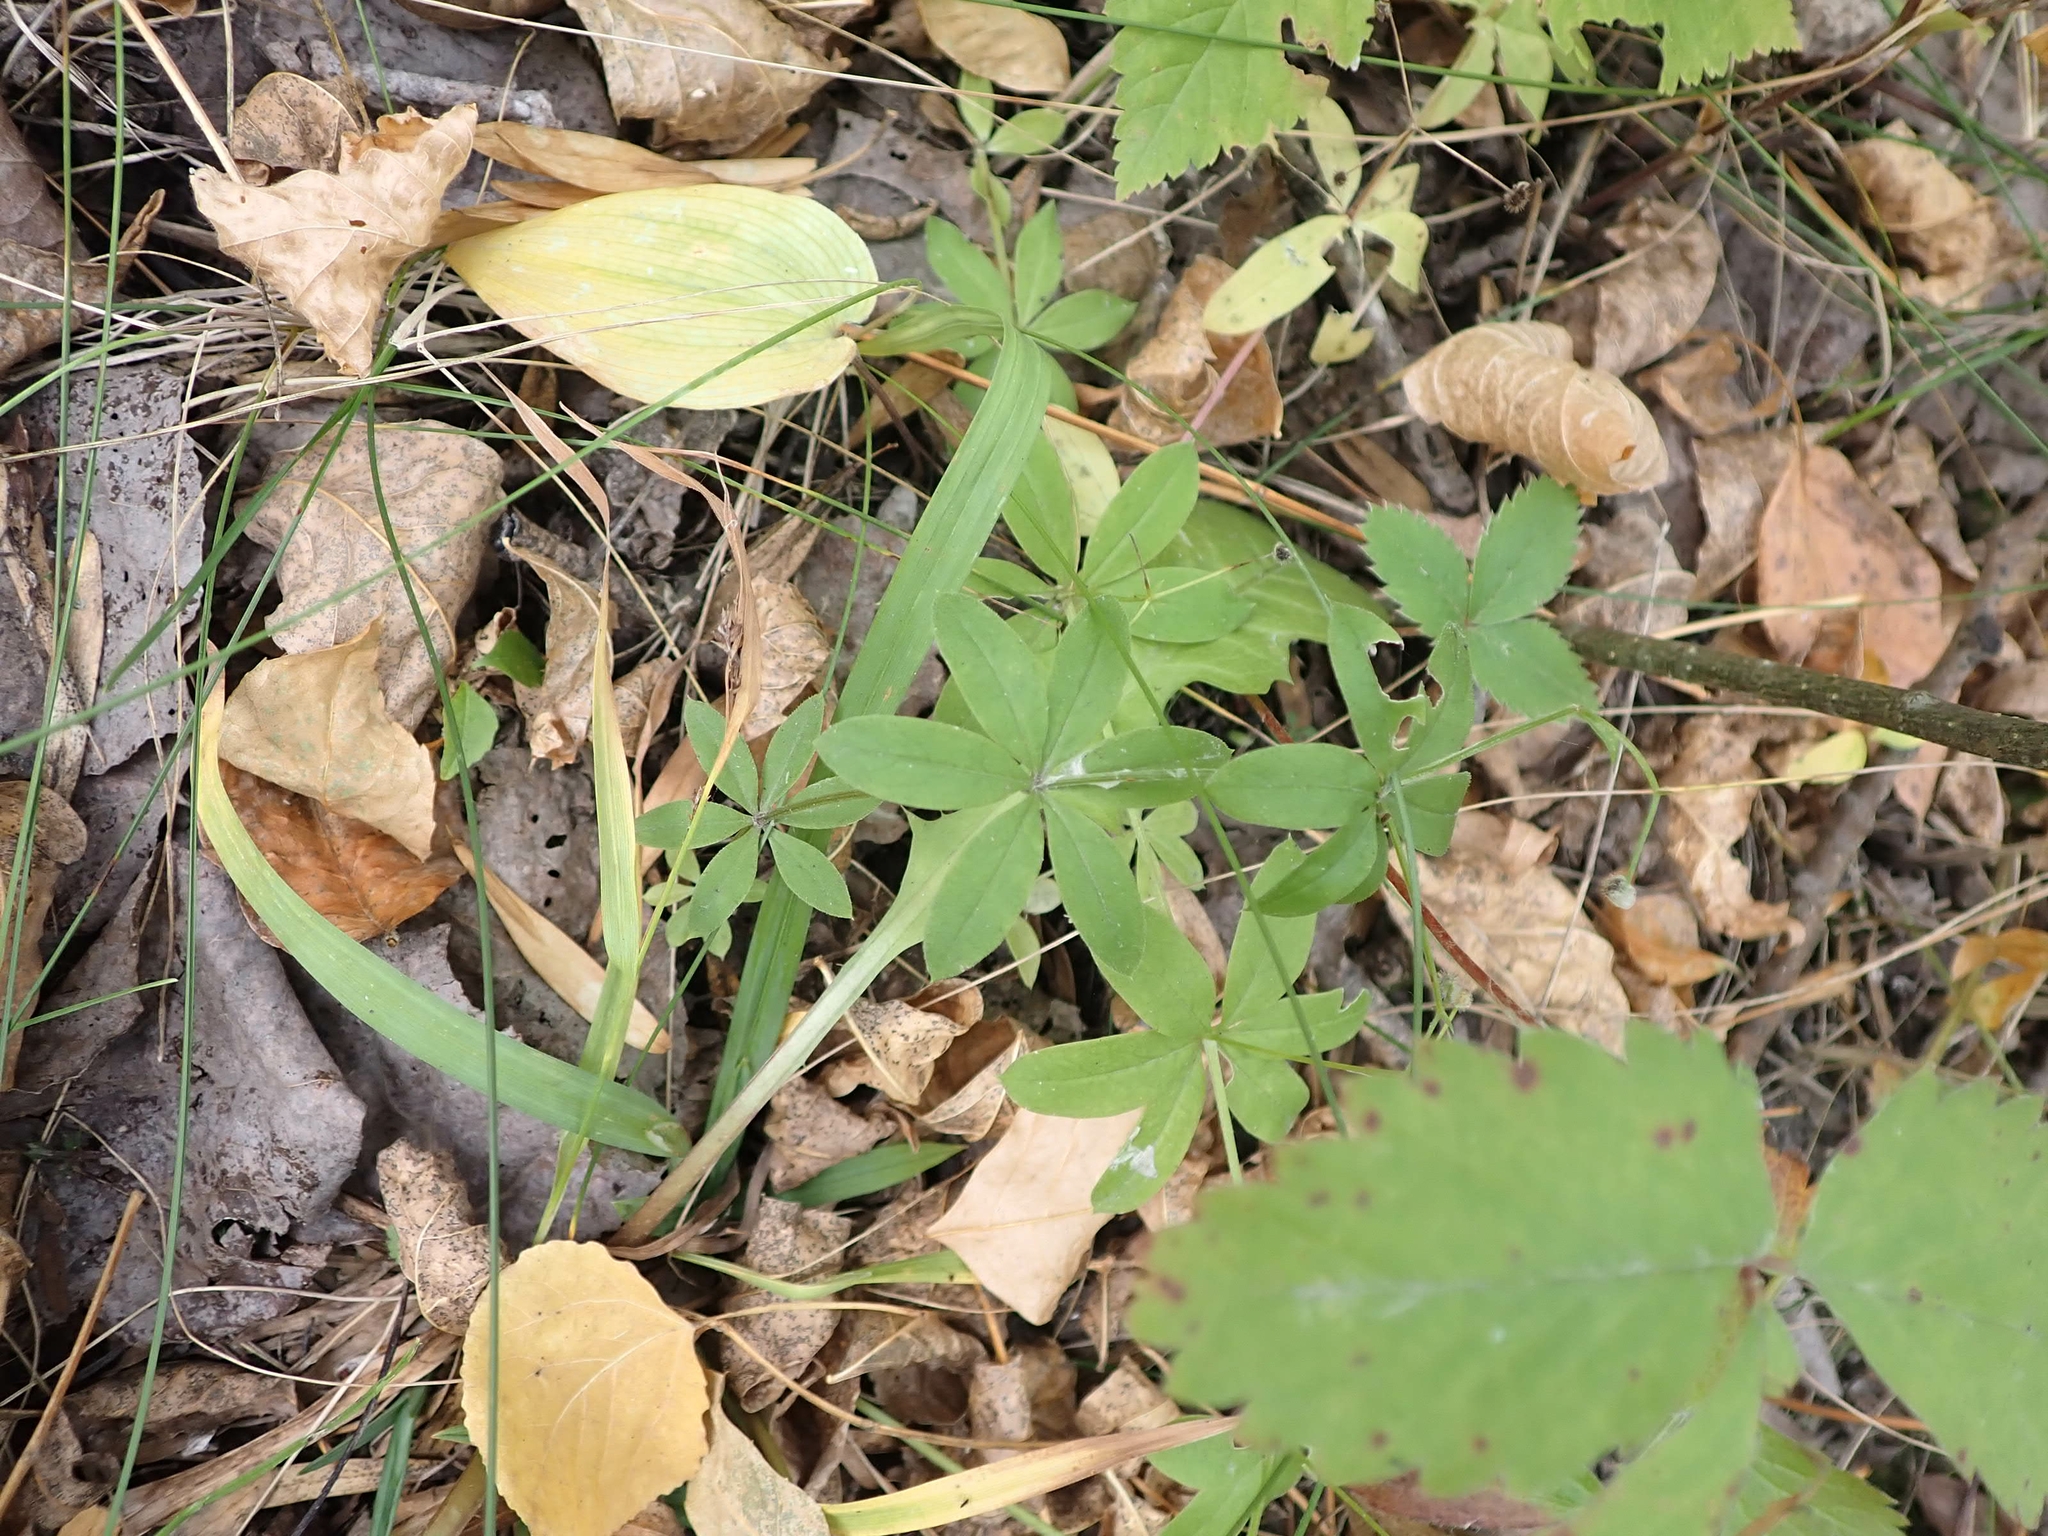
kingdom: Plantae
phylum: Tracheophyta
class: Magnoliopsida
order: Gentianales
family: Rubiaceae
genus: Galium
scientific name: Galium triflorum
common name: Fragrant bedstraw
